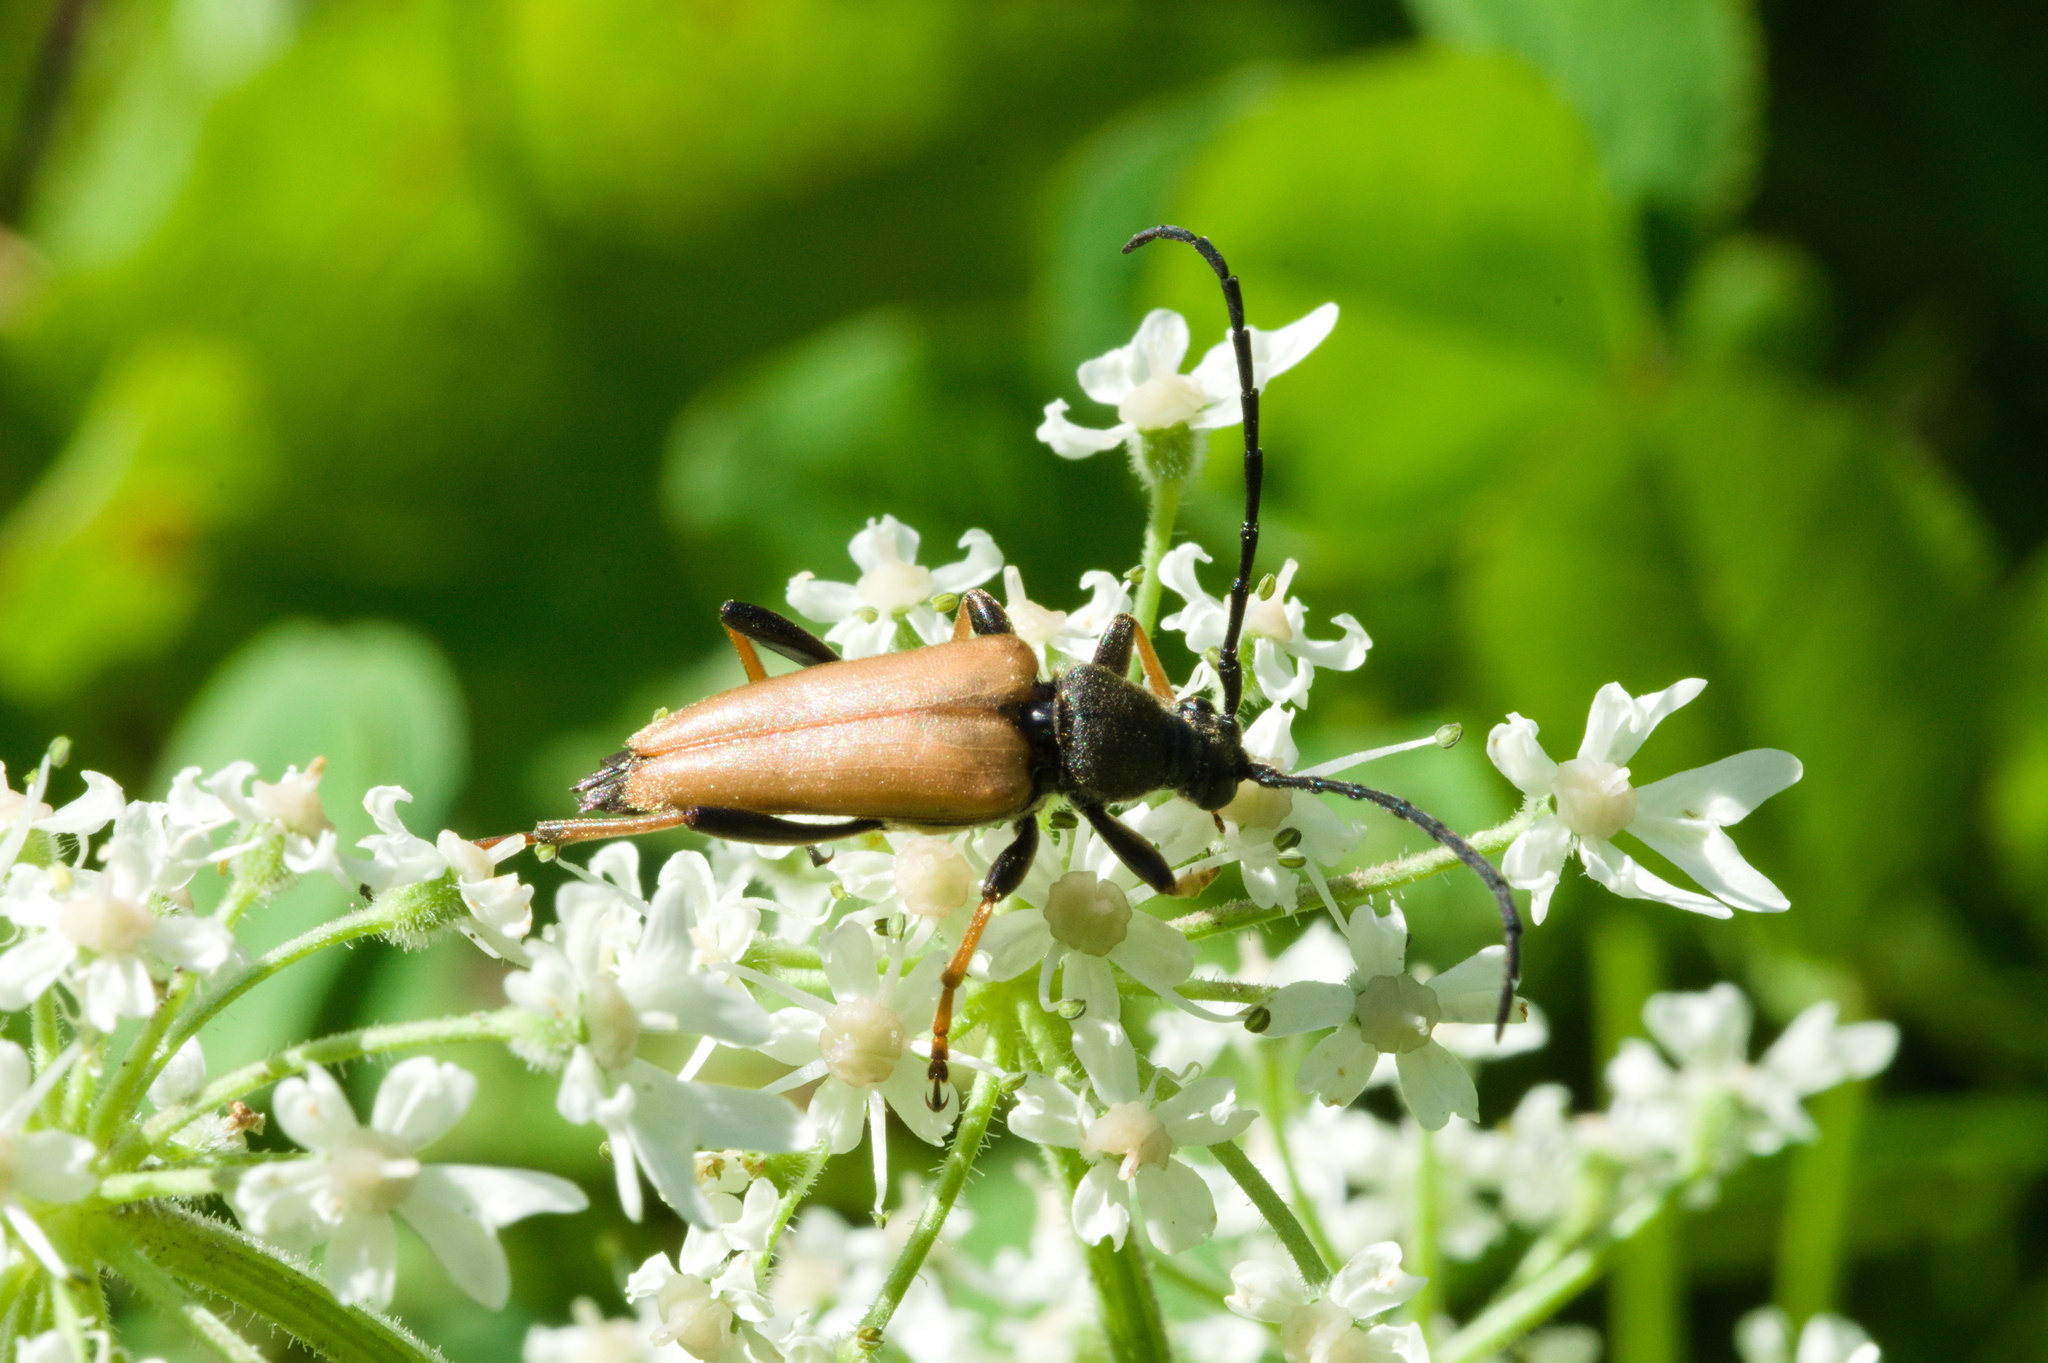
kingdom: Animalia
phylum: Arthropoda
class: Insecta
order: Coleoptera
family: Cerambycidae
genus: Stictoleptura
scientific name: Stictoleptura rubra
